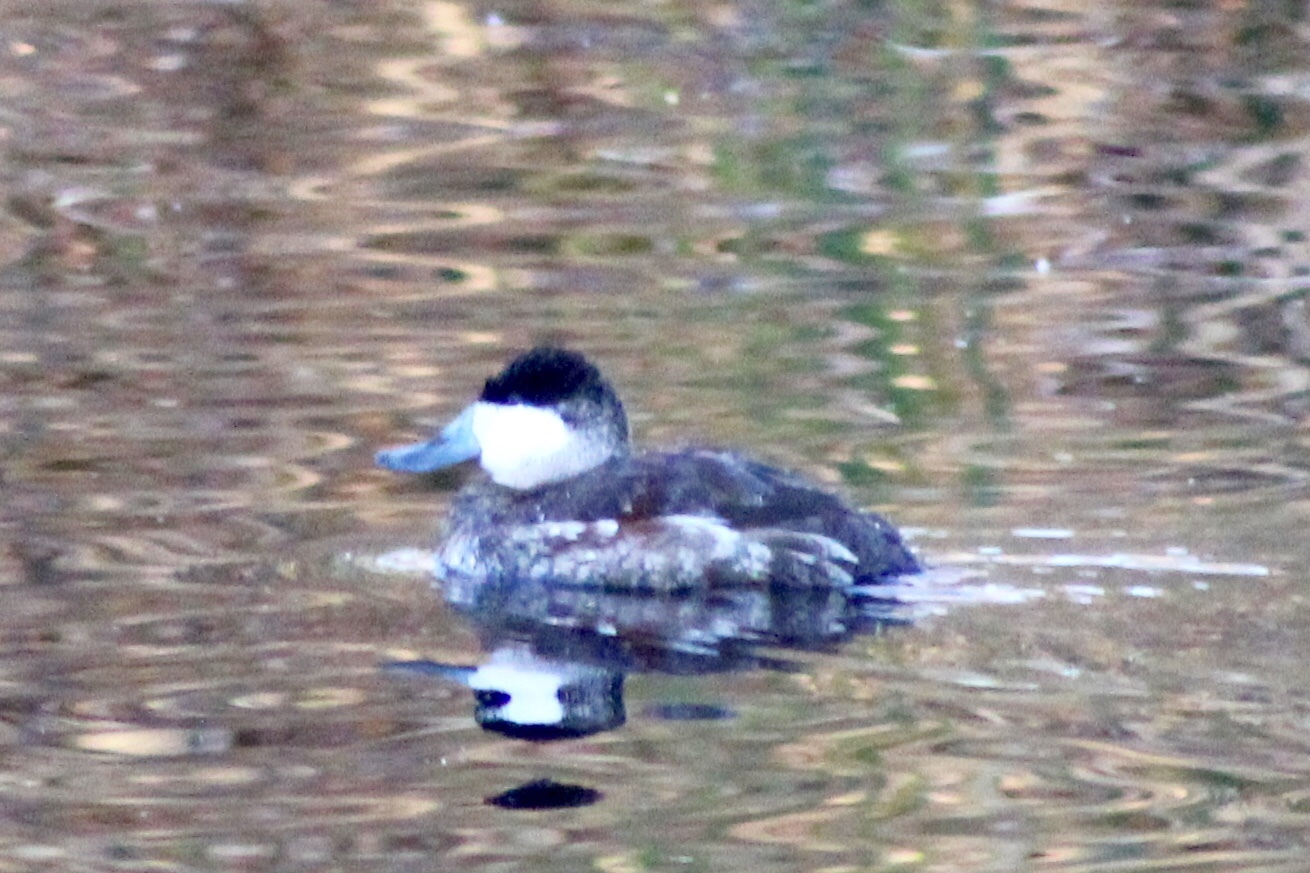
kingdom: Animalia
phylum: Chordata
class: Aves
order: Anseriformes
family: Anatidae
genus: Oxyura
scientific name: Oxyura jamaicensis
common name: Ruddy duck
